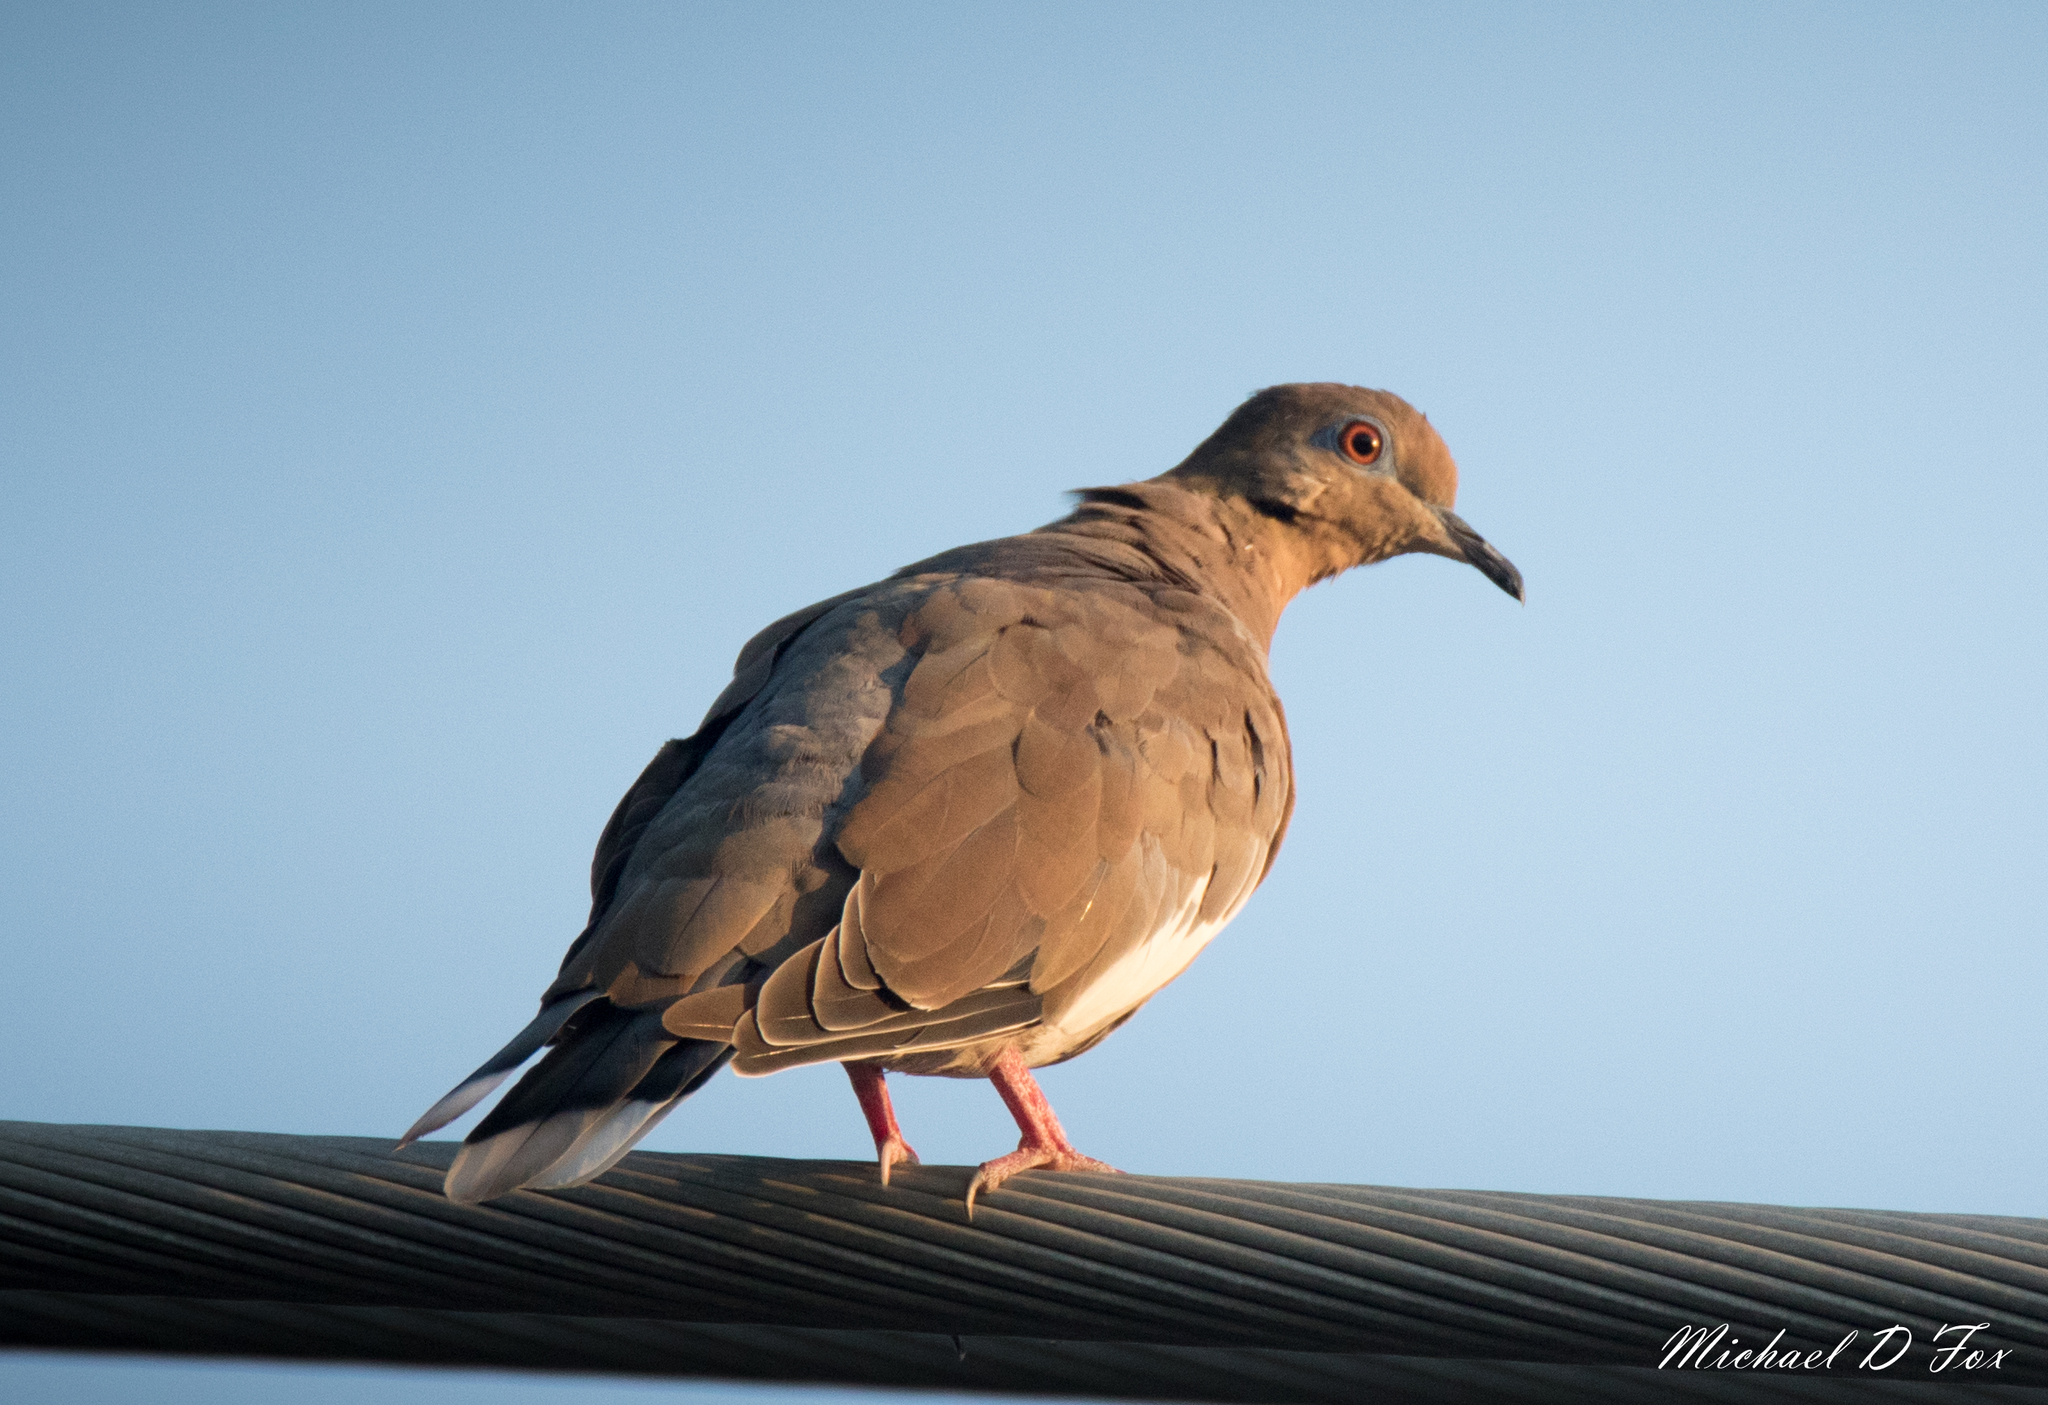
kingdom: Animalia
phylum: Chordata
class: Aves
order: Columbiformes
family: Columbidae
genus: Zenaida
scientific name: Zenaida macroura
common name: Mourning dove
